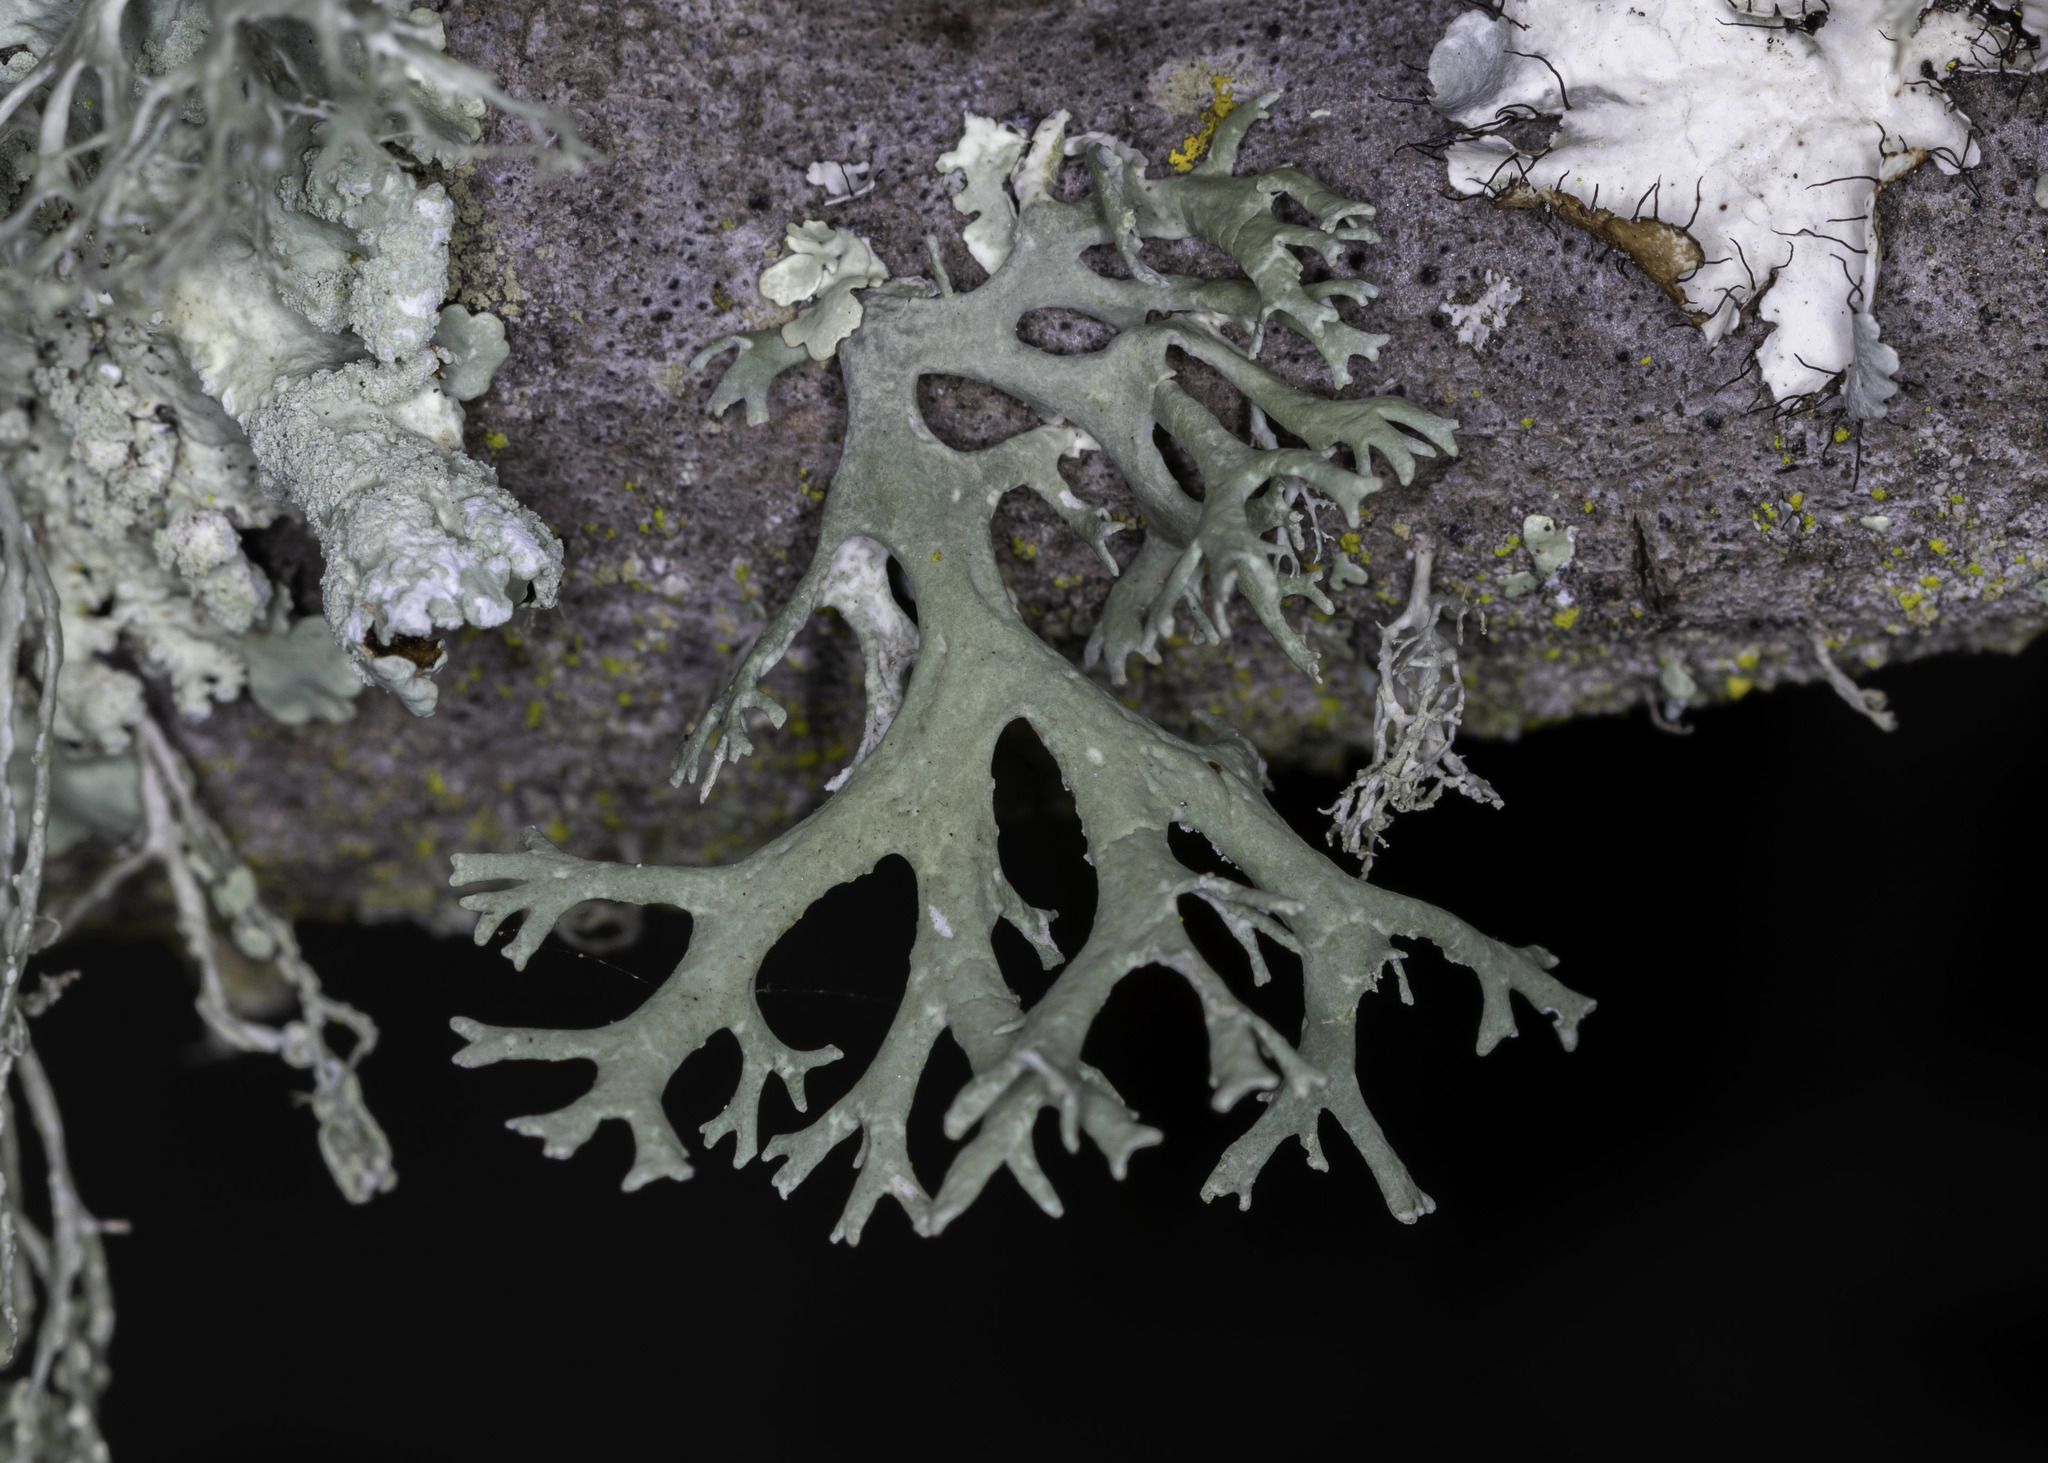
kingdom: Fungi
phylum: Ascomycota
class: Lecanoromycetes
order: Lecanorales
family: Parmeliaceae
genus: Evernia
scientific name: Evernia prunastri
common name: Oak moss
